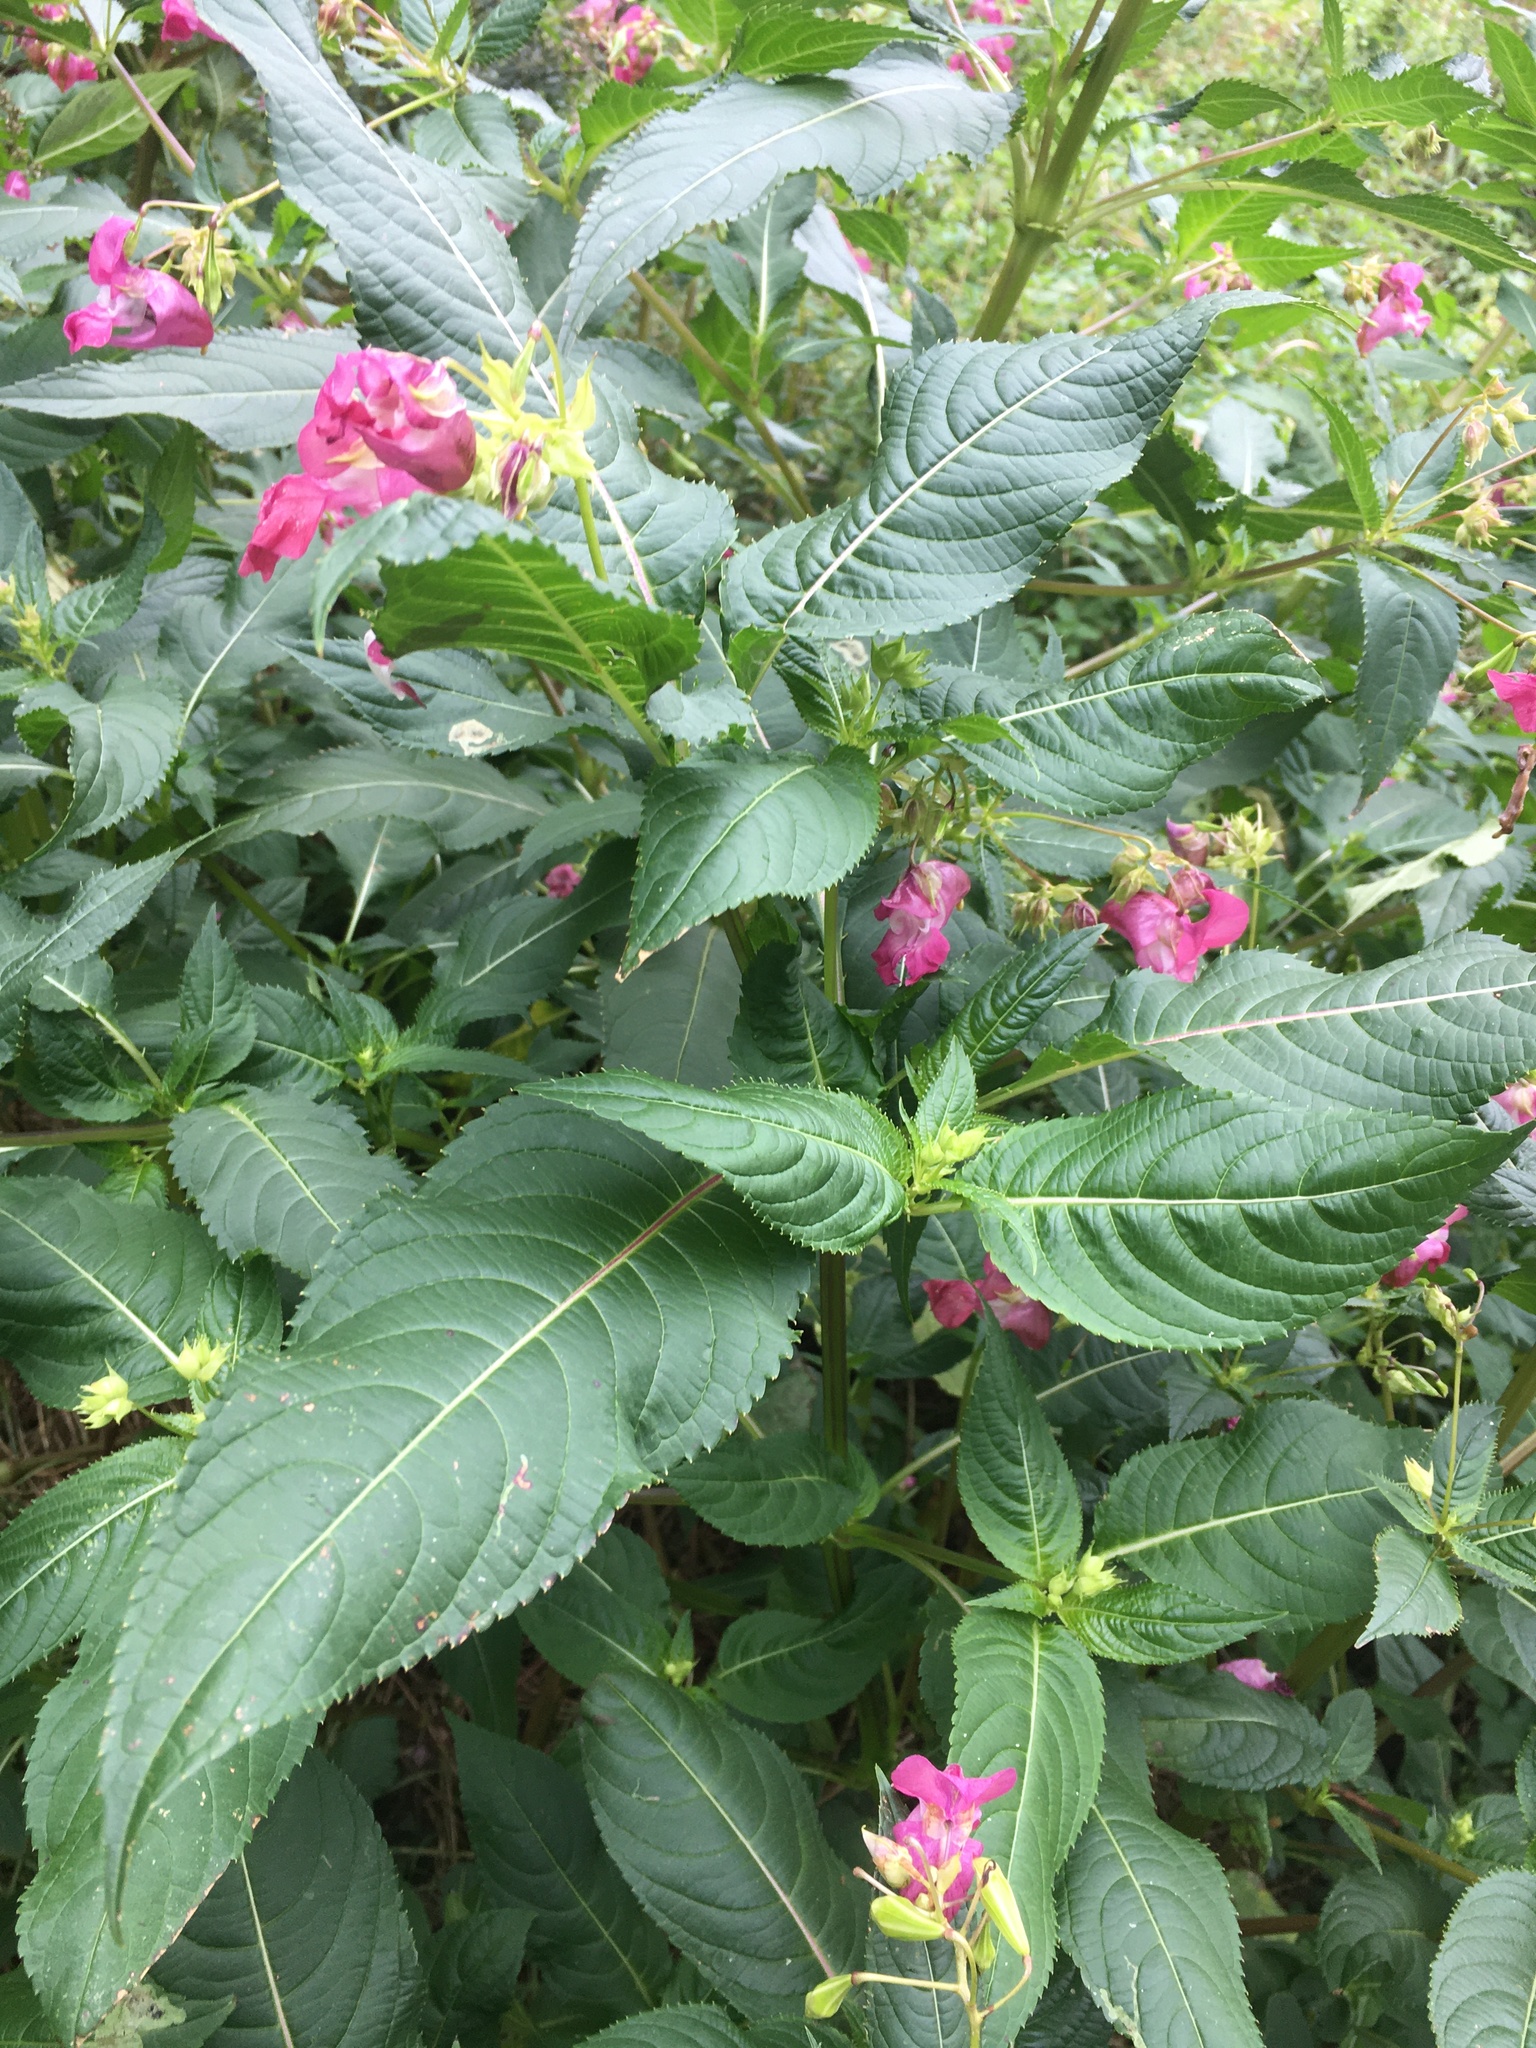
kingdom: Plantae
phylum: Tracheophyta
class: Magnoliopsida
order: Ericales
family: Balsaminaceae
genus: Impatiens
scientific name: Impatiens glandulifera
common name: Himalayan balsam
